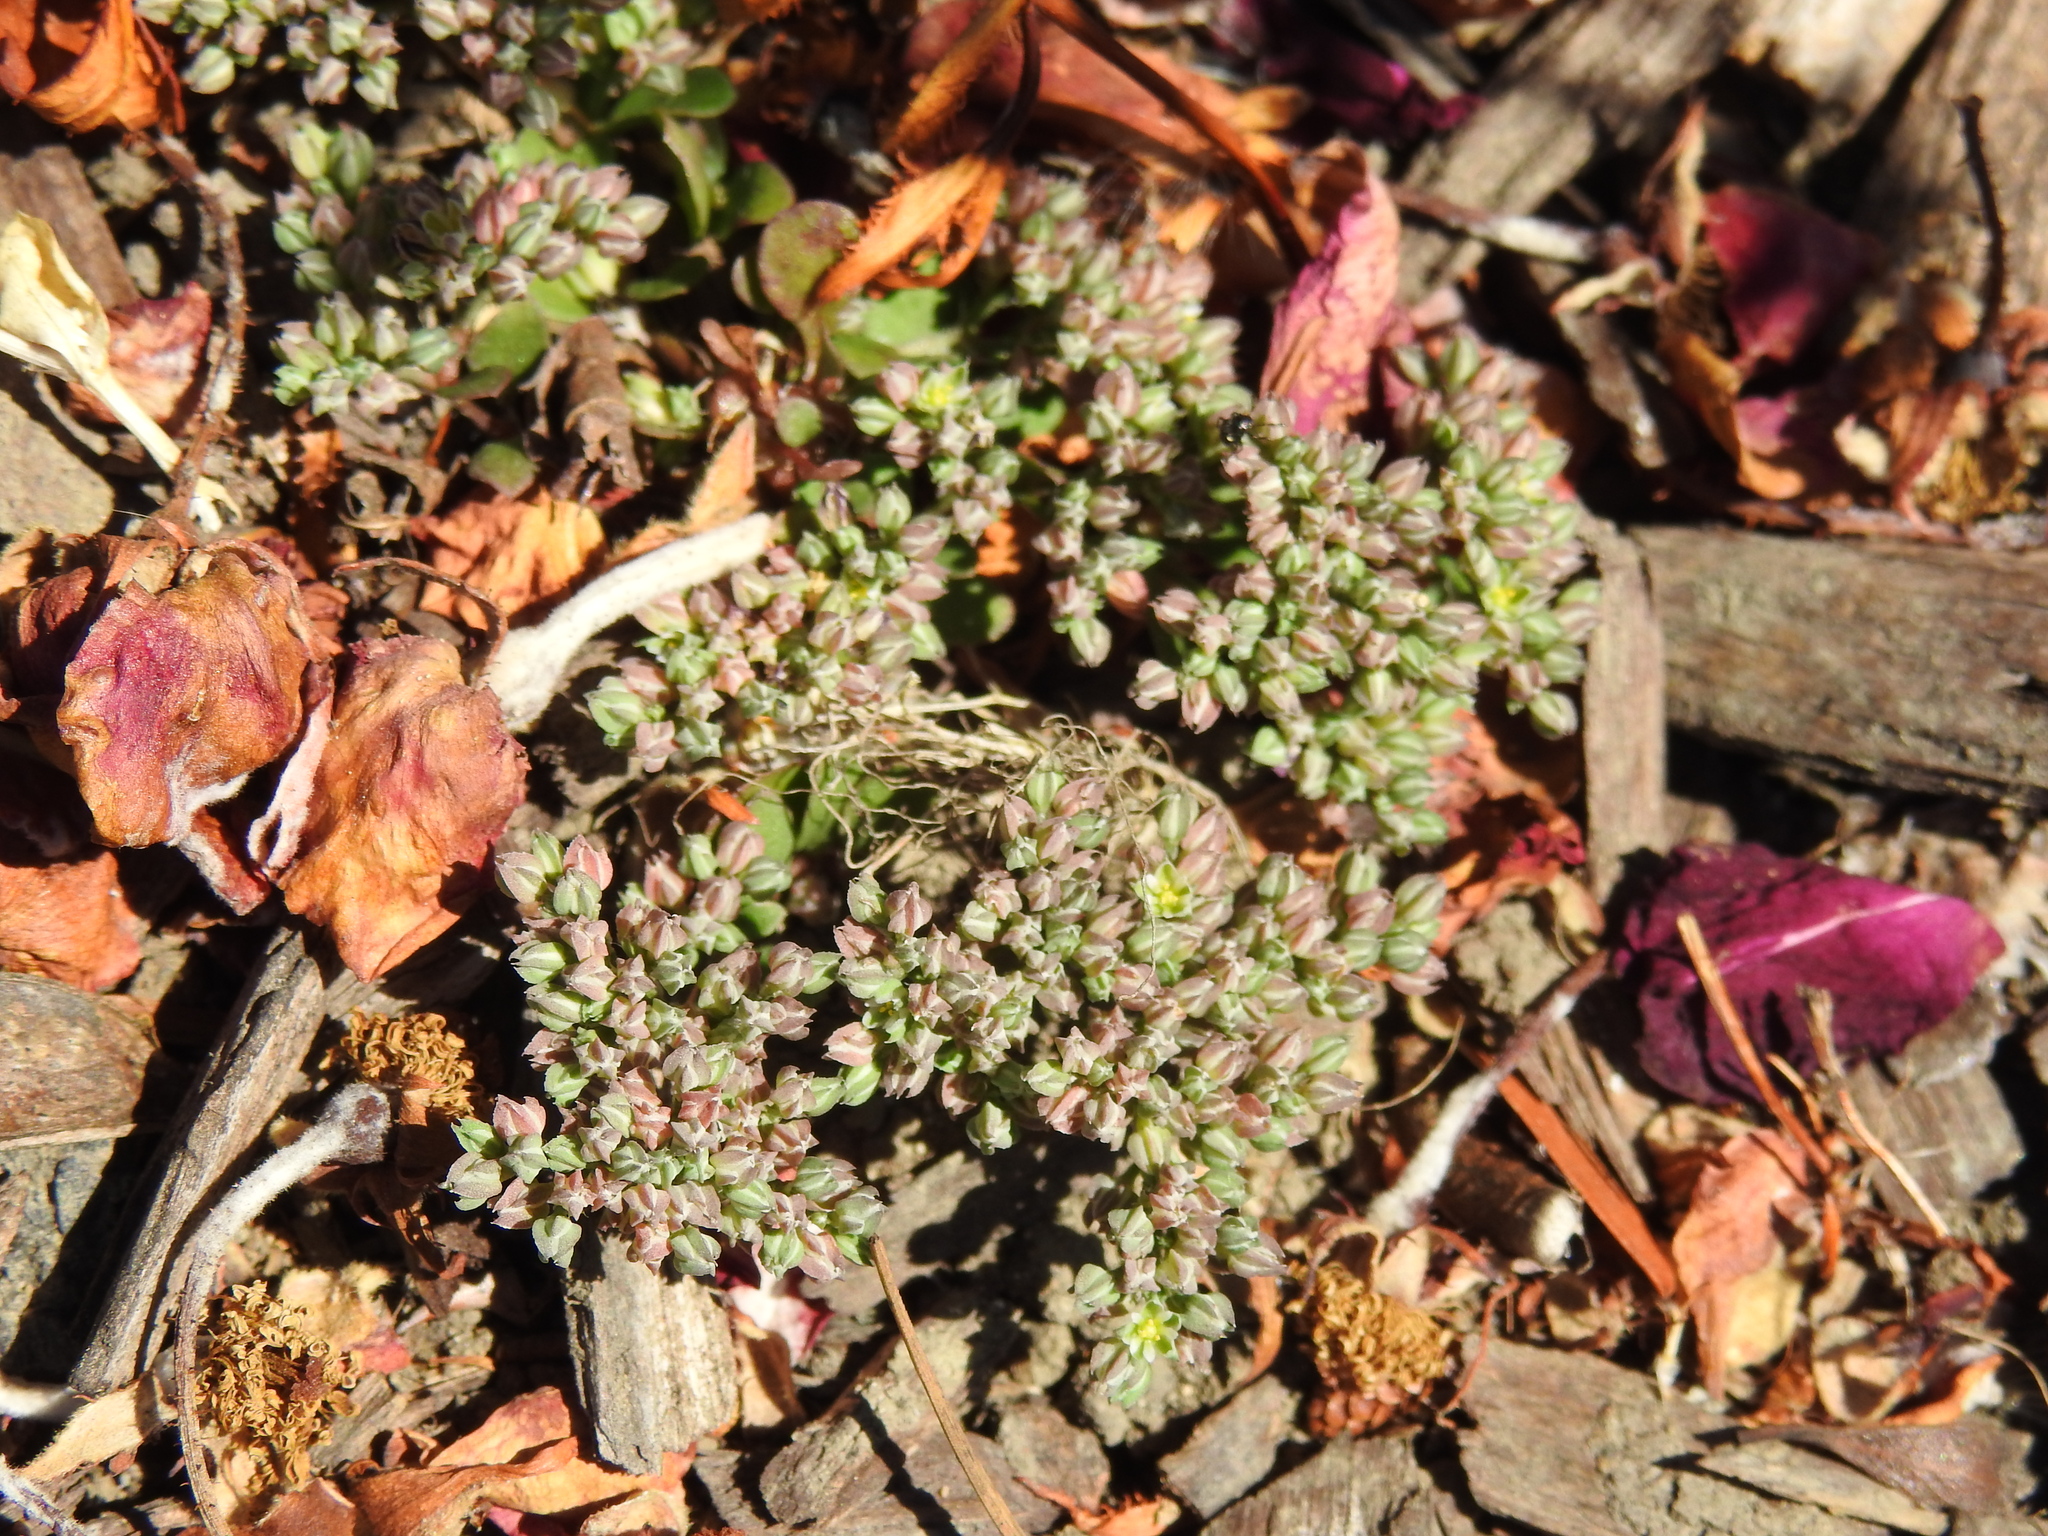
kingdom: Plantae
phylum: Tracheophyta
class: Magnoliopsida
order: Caryophyllales
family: Caryophyllaceae
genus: Polycarpon
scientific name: Polycarpon tetraphyllum
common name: Four-leaved all-seed
